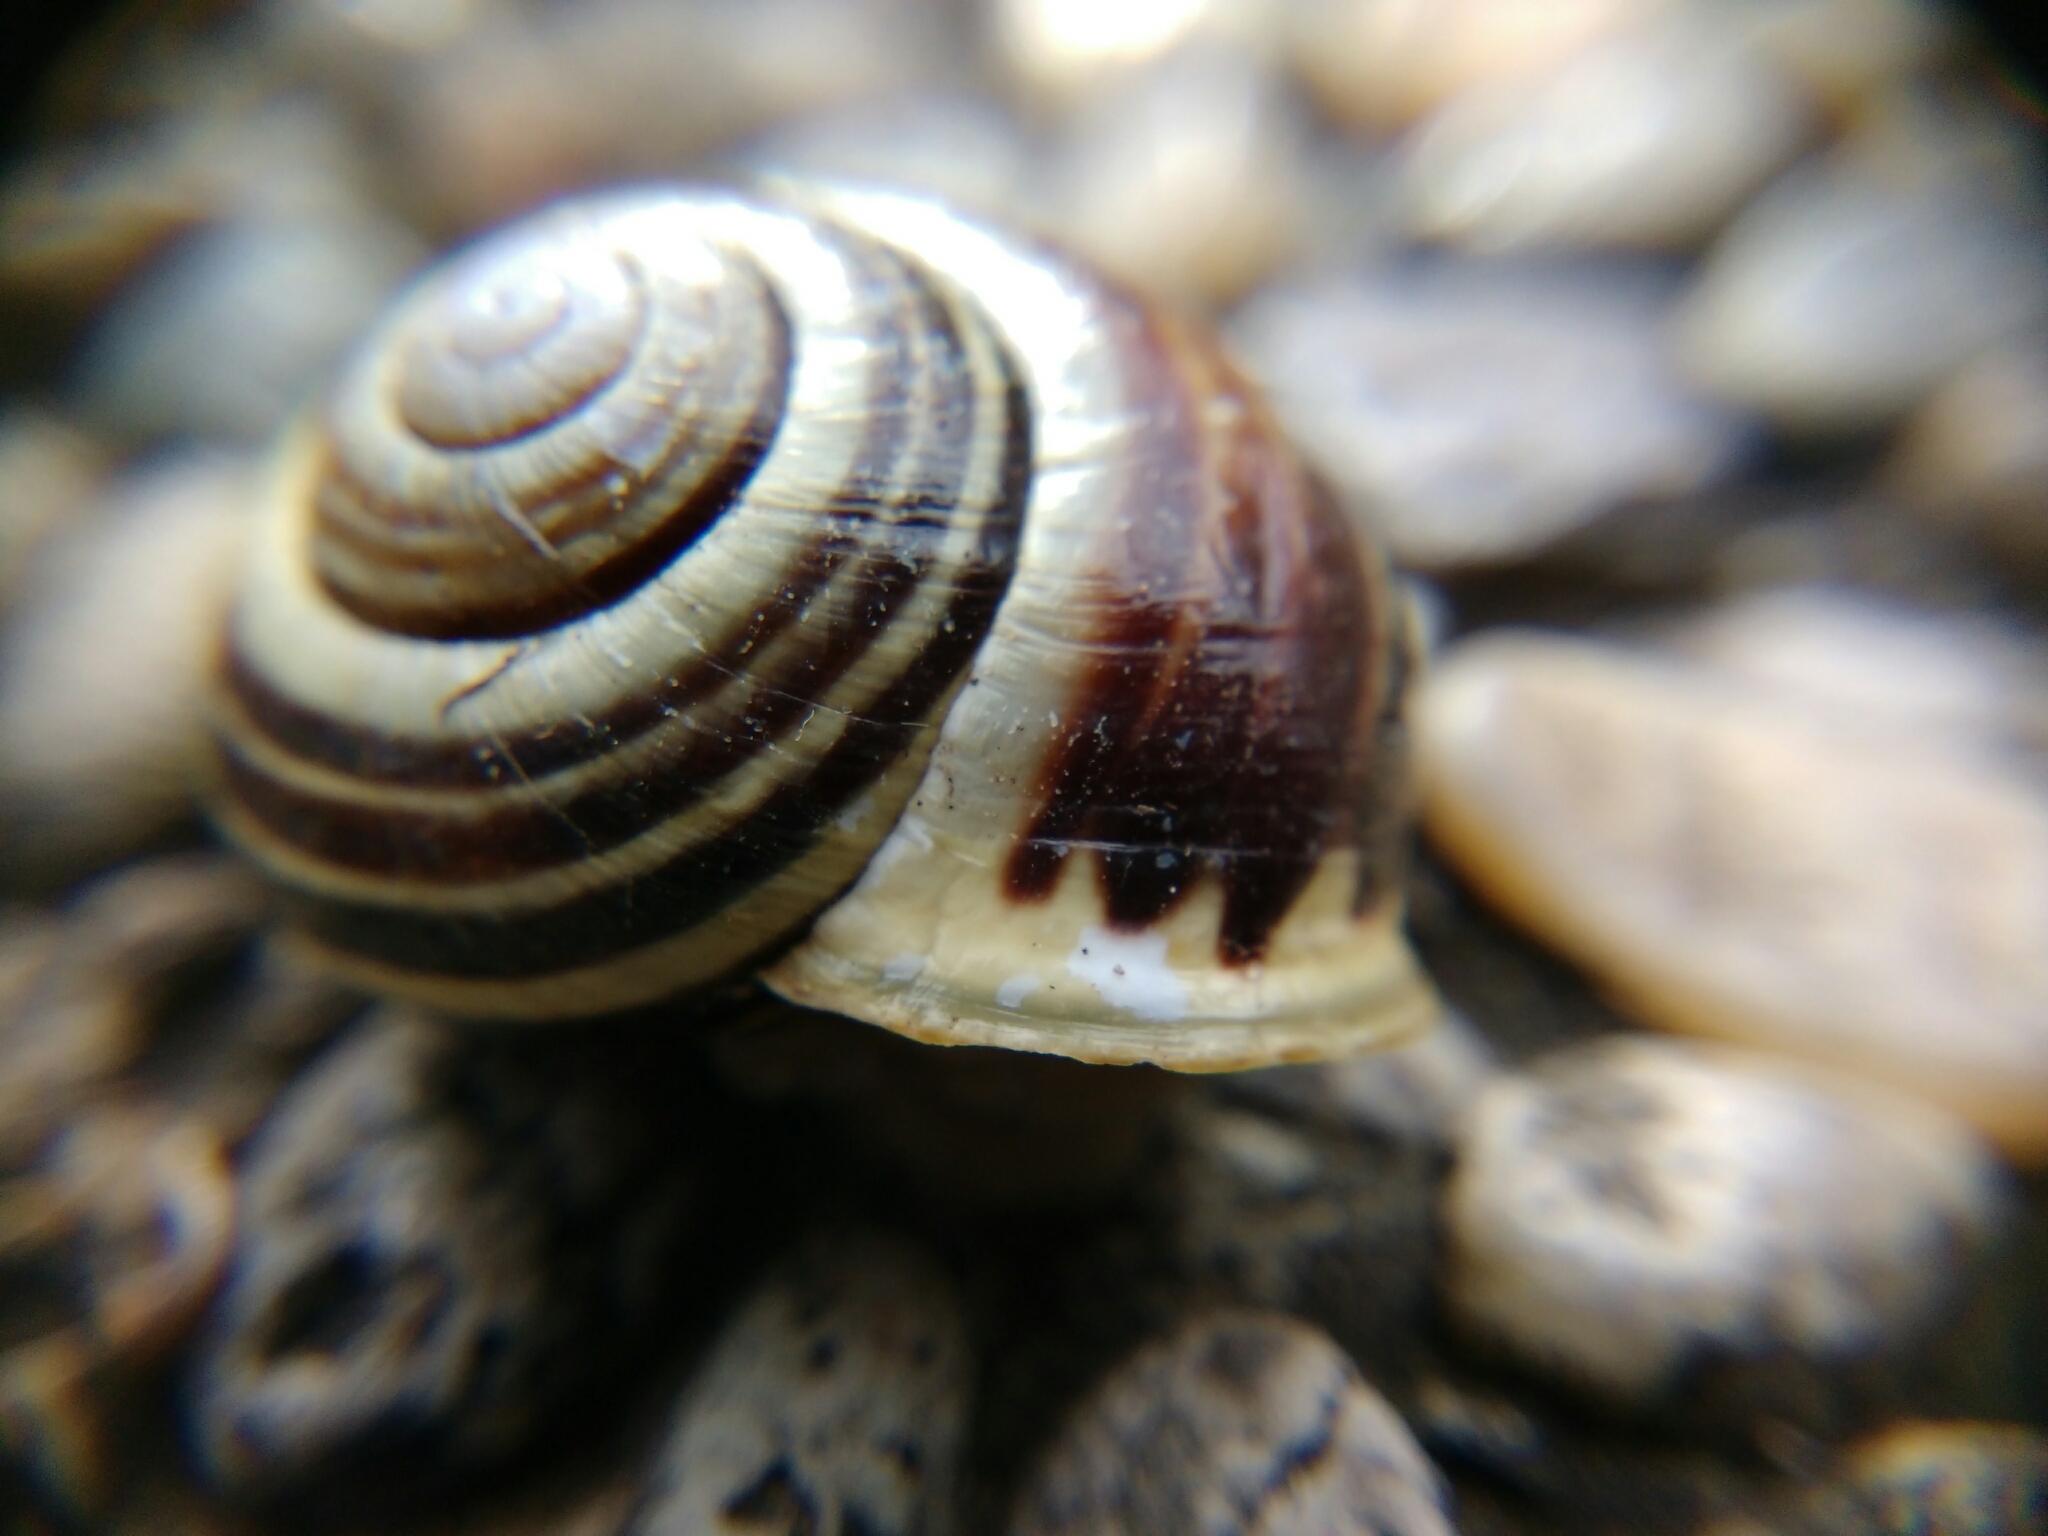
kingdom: Animalia
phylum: Mollusca
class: Gastropoda
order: Stylommatophora
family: Helicidae
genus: Cepaea
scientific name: Cepaea hortensis
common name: White-lip gardensnail
